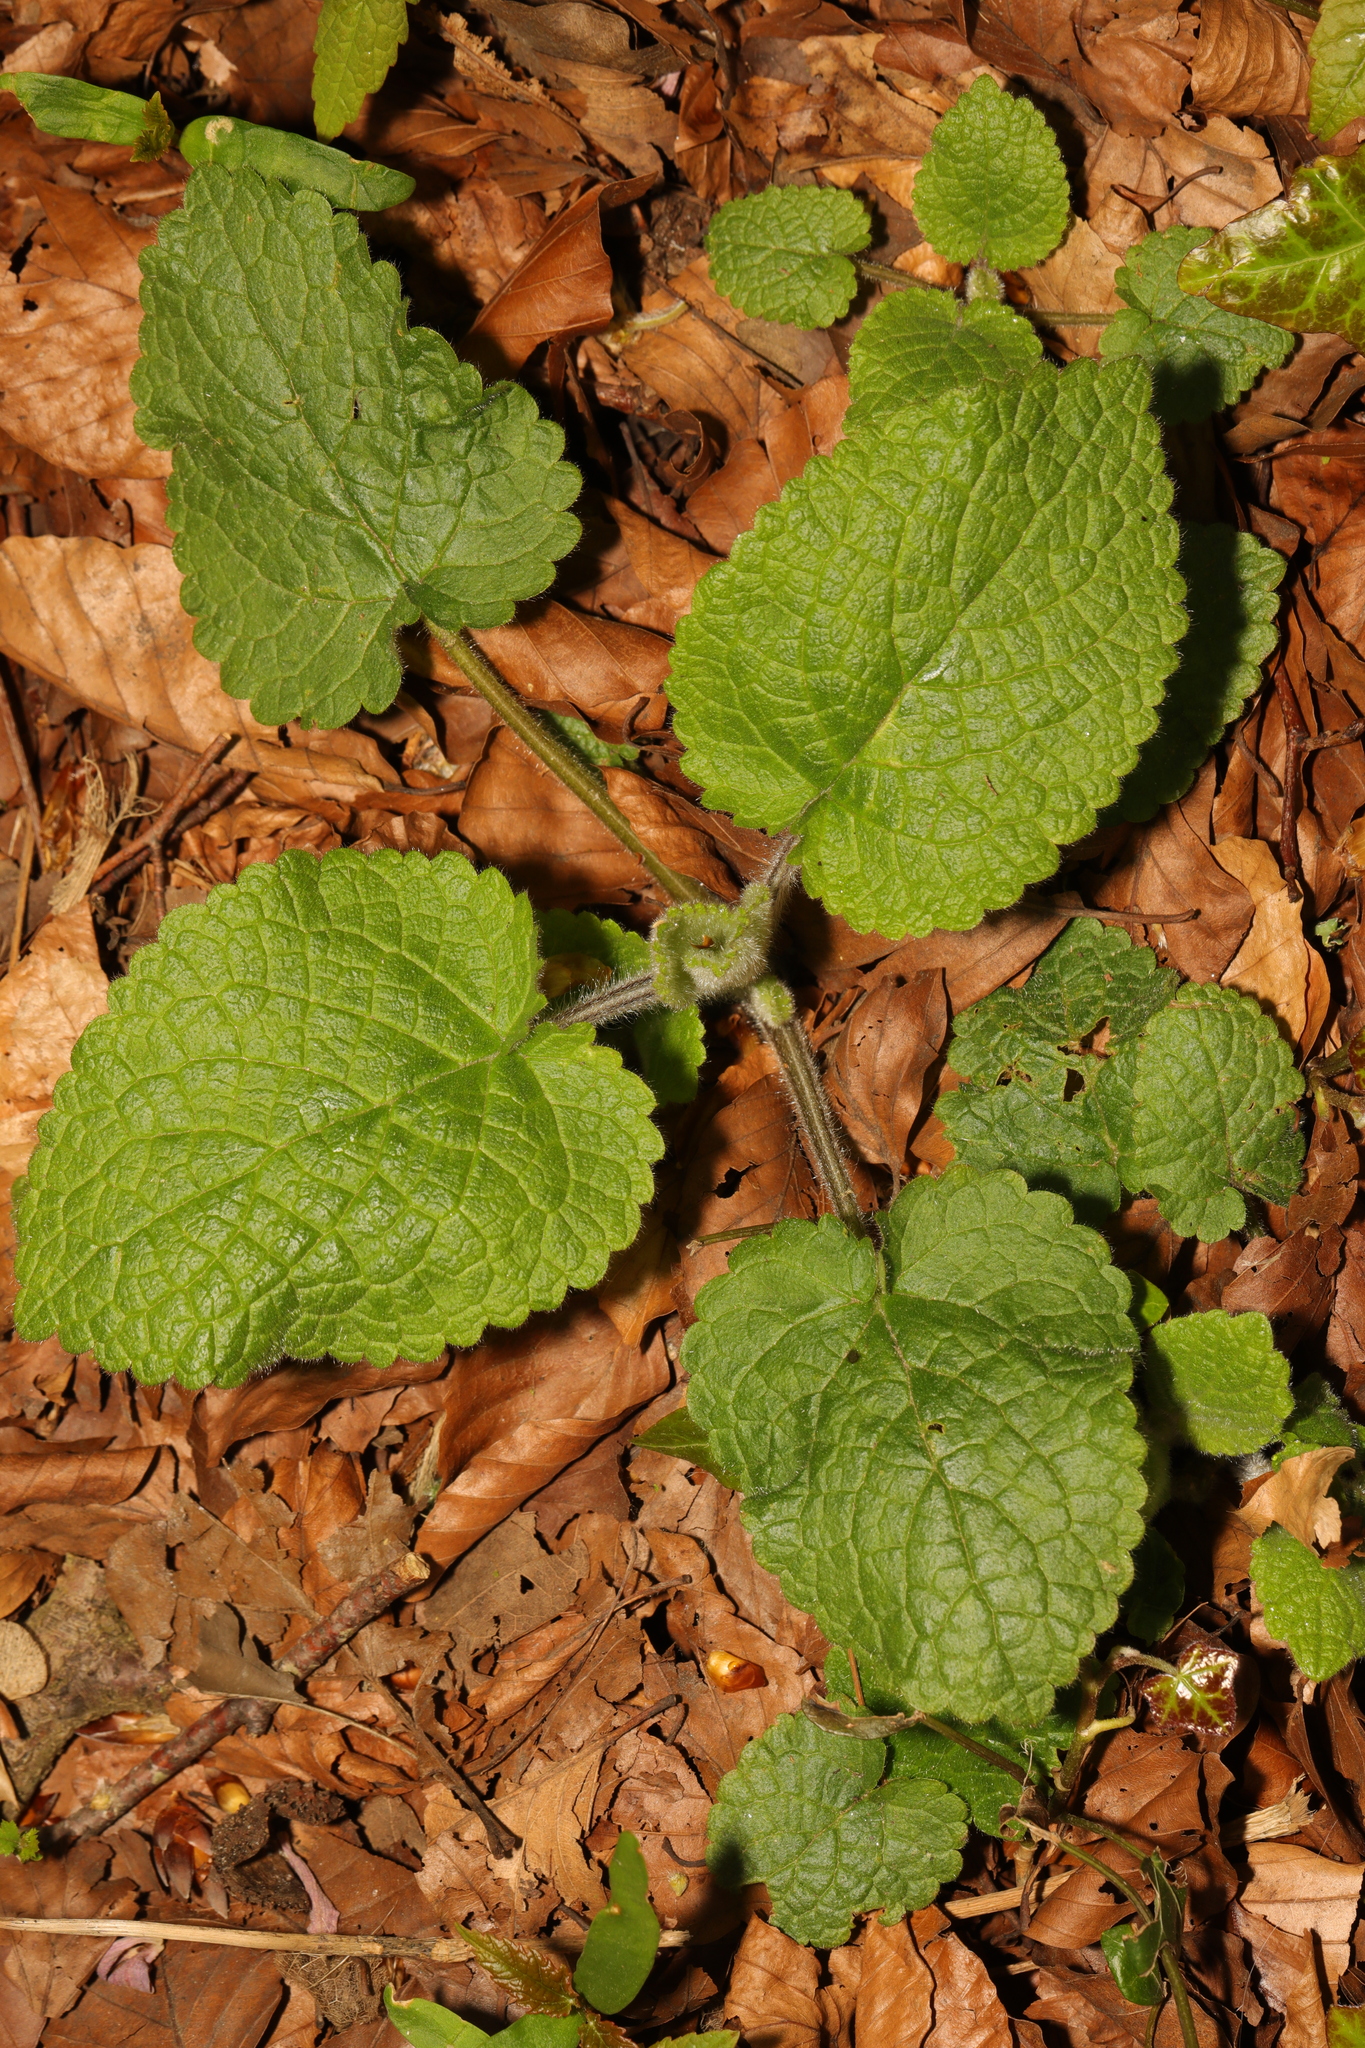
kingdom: Plantae
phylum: Tracheophyta
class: Magnoliopsida
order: Lamiales
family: Lamiaceae
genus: Stachys
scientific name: Stachys sylvatica
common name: Hedge woundwort
